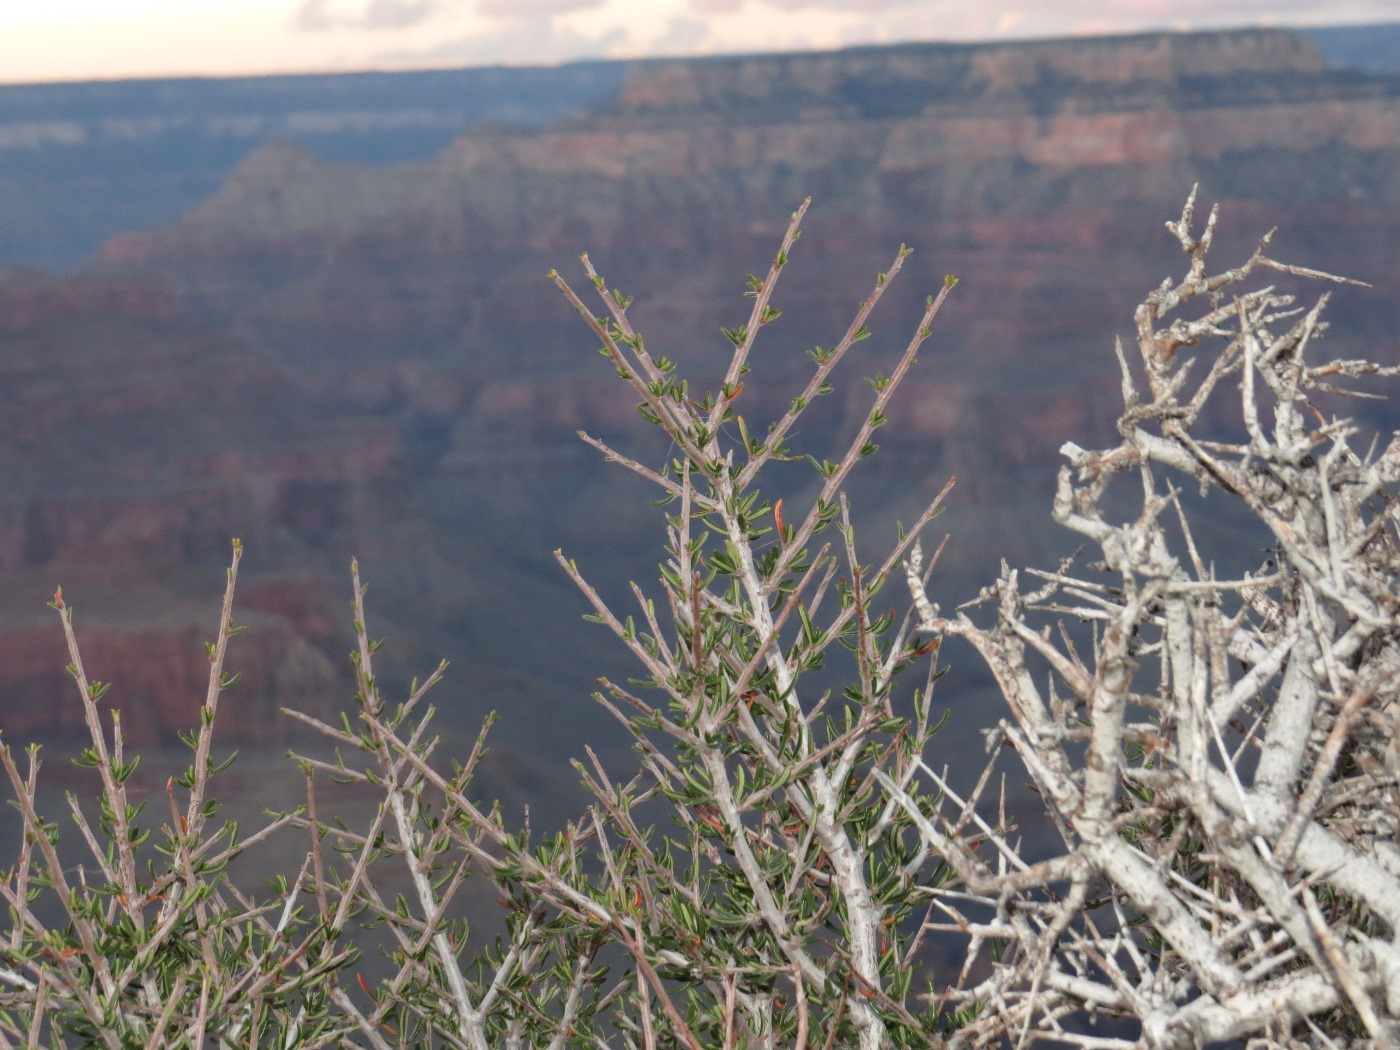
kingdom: Plantae
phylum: Tracheophyta
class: Magnoliopsida
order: Rosales
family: Rosaceae
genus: Cercocarpus
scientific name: Cercocarpus intricatus
